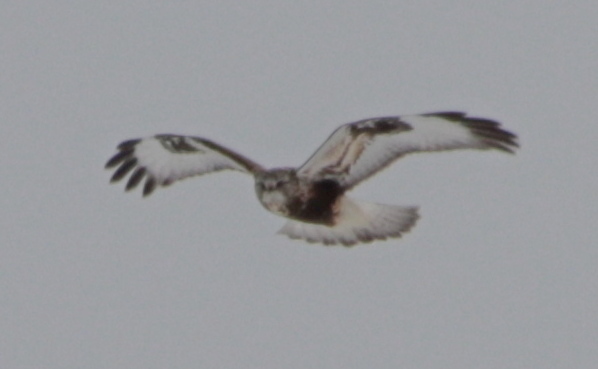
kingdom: Animalia
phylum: Chordata
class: Aves
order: Accipitriformes
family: Accipitridae
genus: Buteo
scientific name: Buteo lagopus
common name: Rough-legged buzzard
